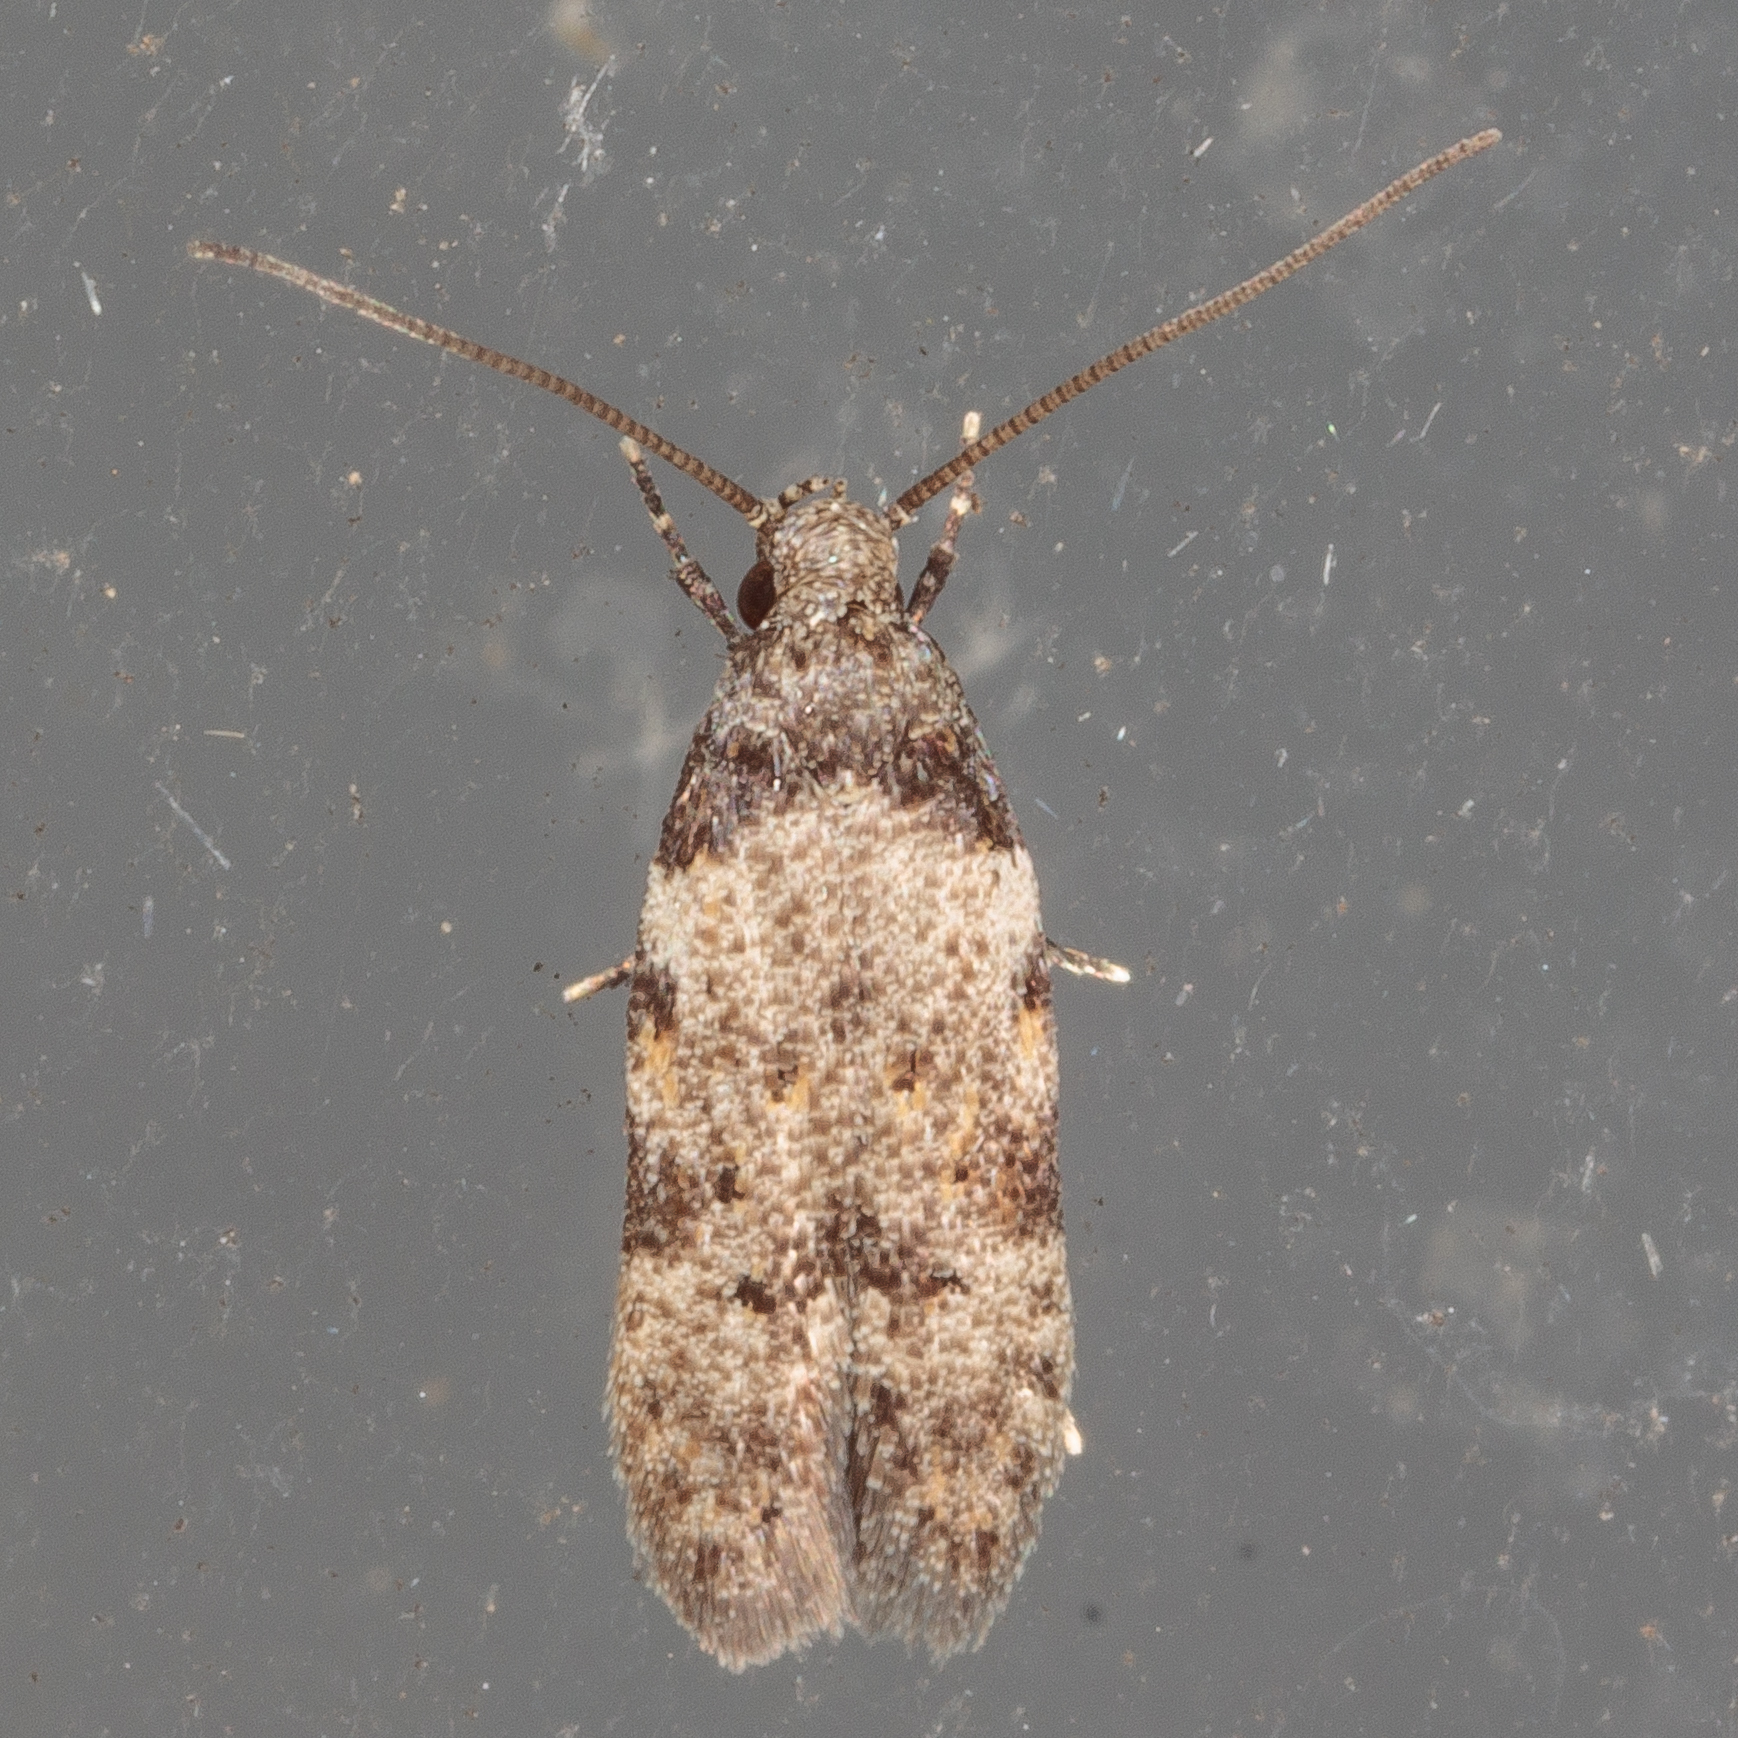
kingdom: Animalia
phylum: Arthropoda
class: Insecta
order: Lepidoptera
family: Autostichidae
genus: Taygete
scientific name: Taygete attributella
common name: Triangle-marked twirler moth
